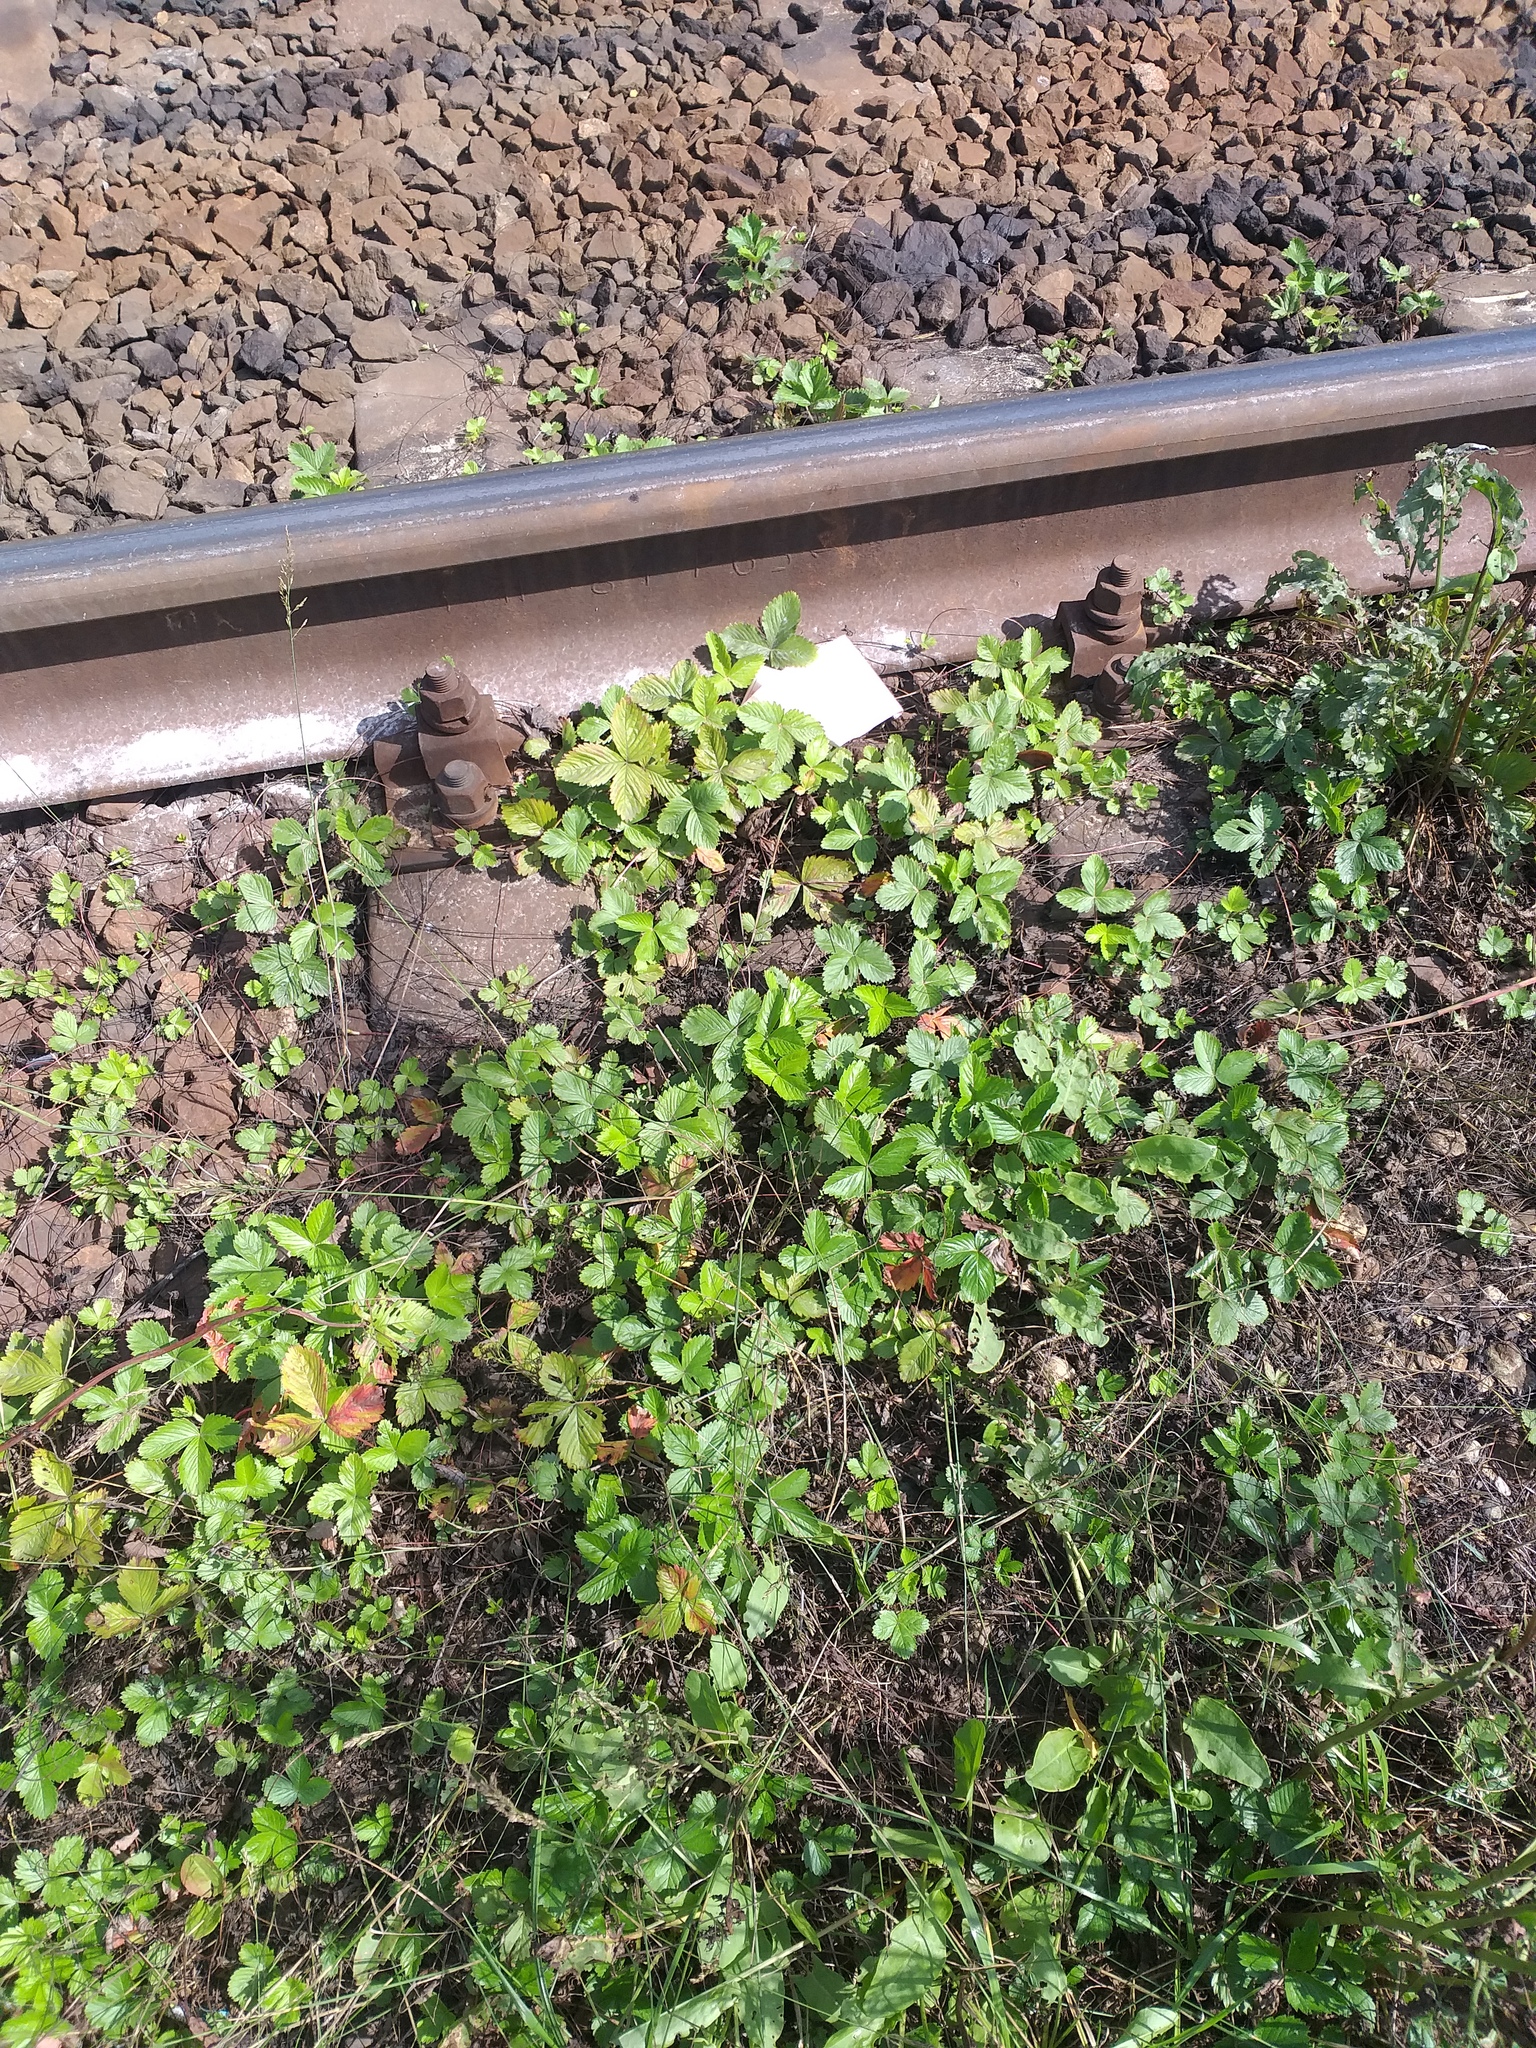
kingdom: Plantae
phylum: Tracheophyta
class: Magnoliopsida
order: Rosales
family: Rosaceae
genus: Fragaria
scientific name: Fragaria vesca
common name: Wild strawberry
